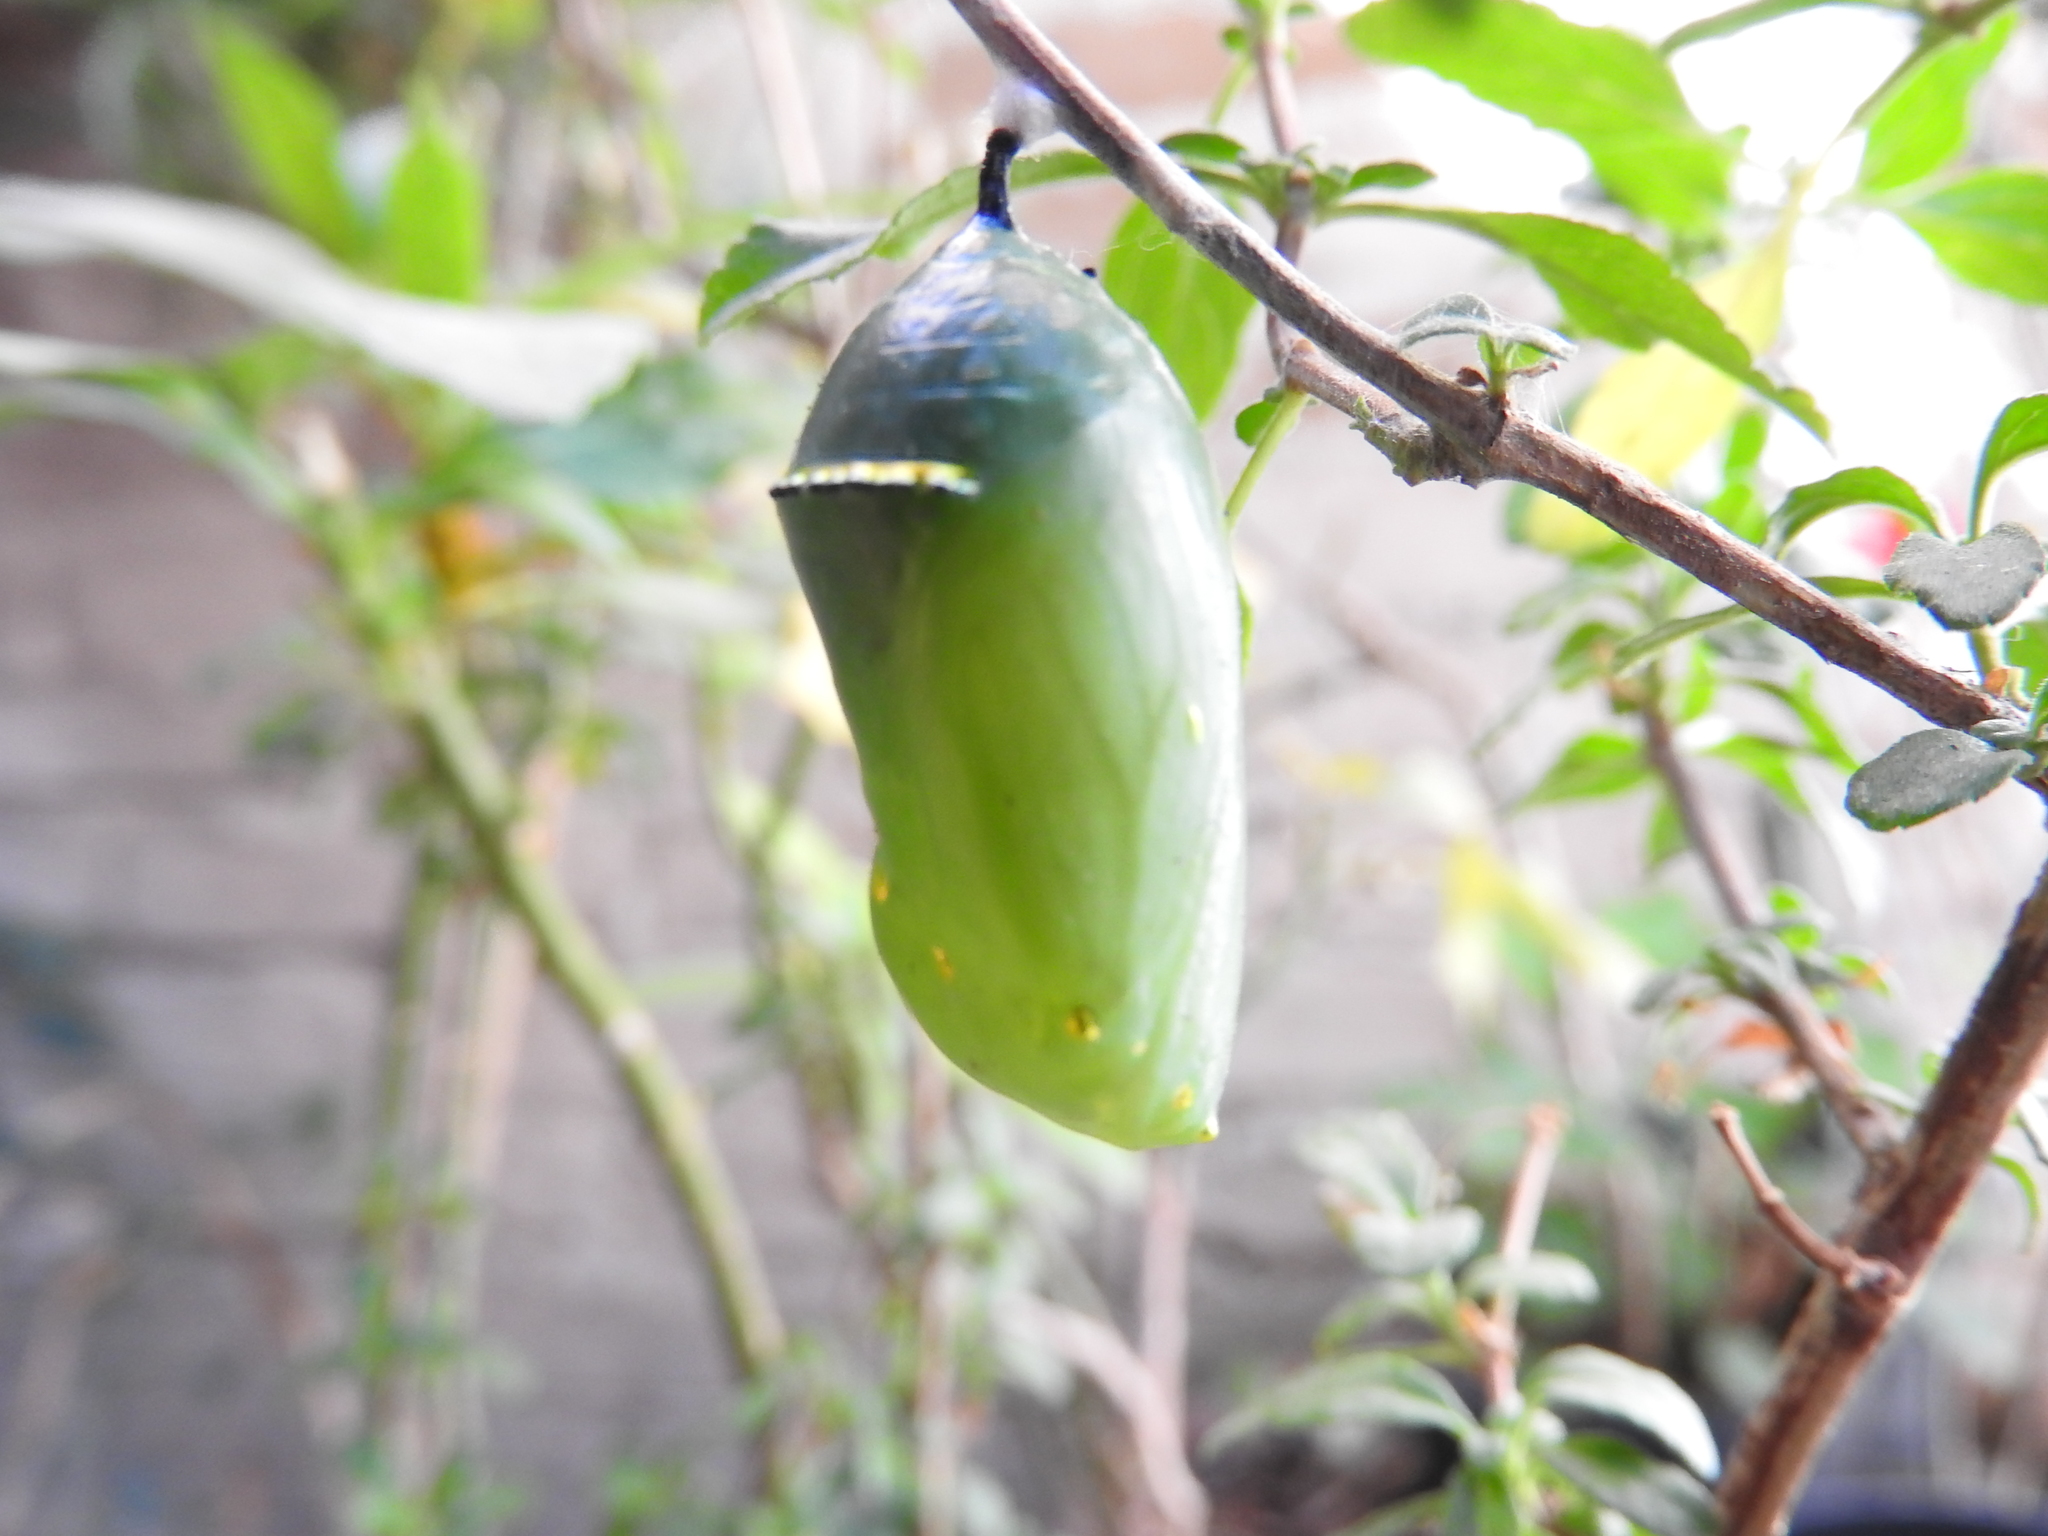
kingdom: Animalia
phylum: Arthropoda
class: Insecta
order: Lepidoptera
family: Nymphalidae
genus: Danaus
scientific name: Danaus plexippus
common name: Monarch
